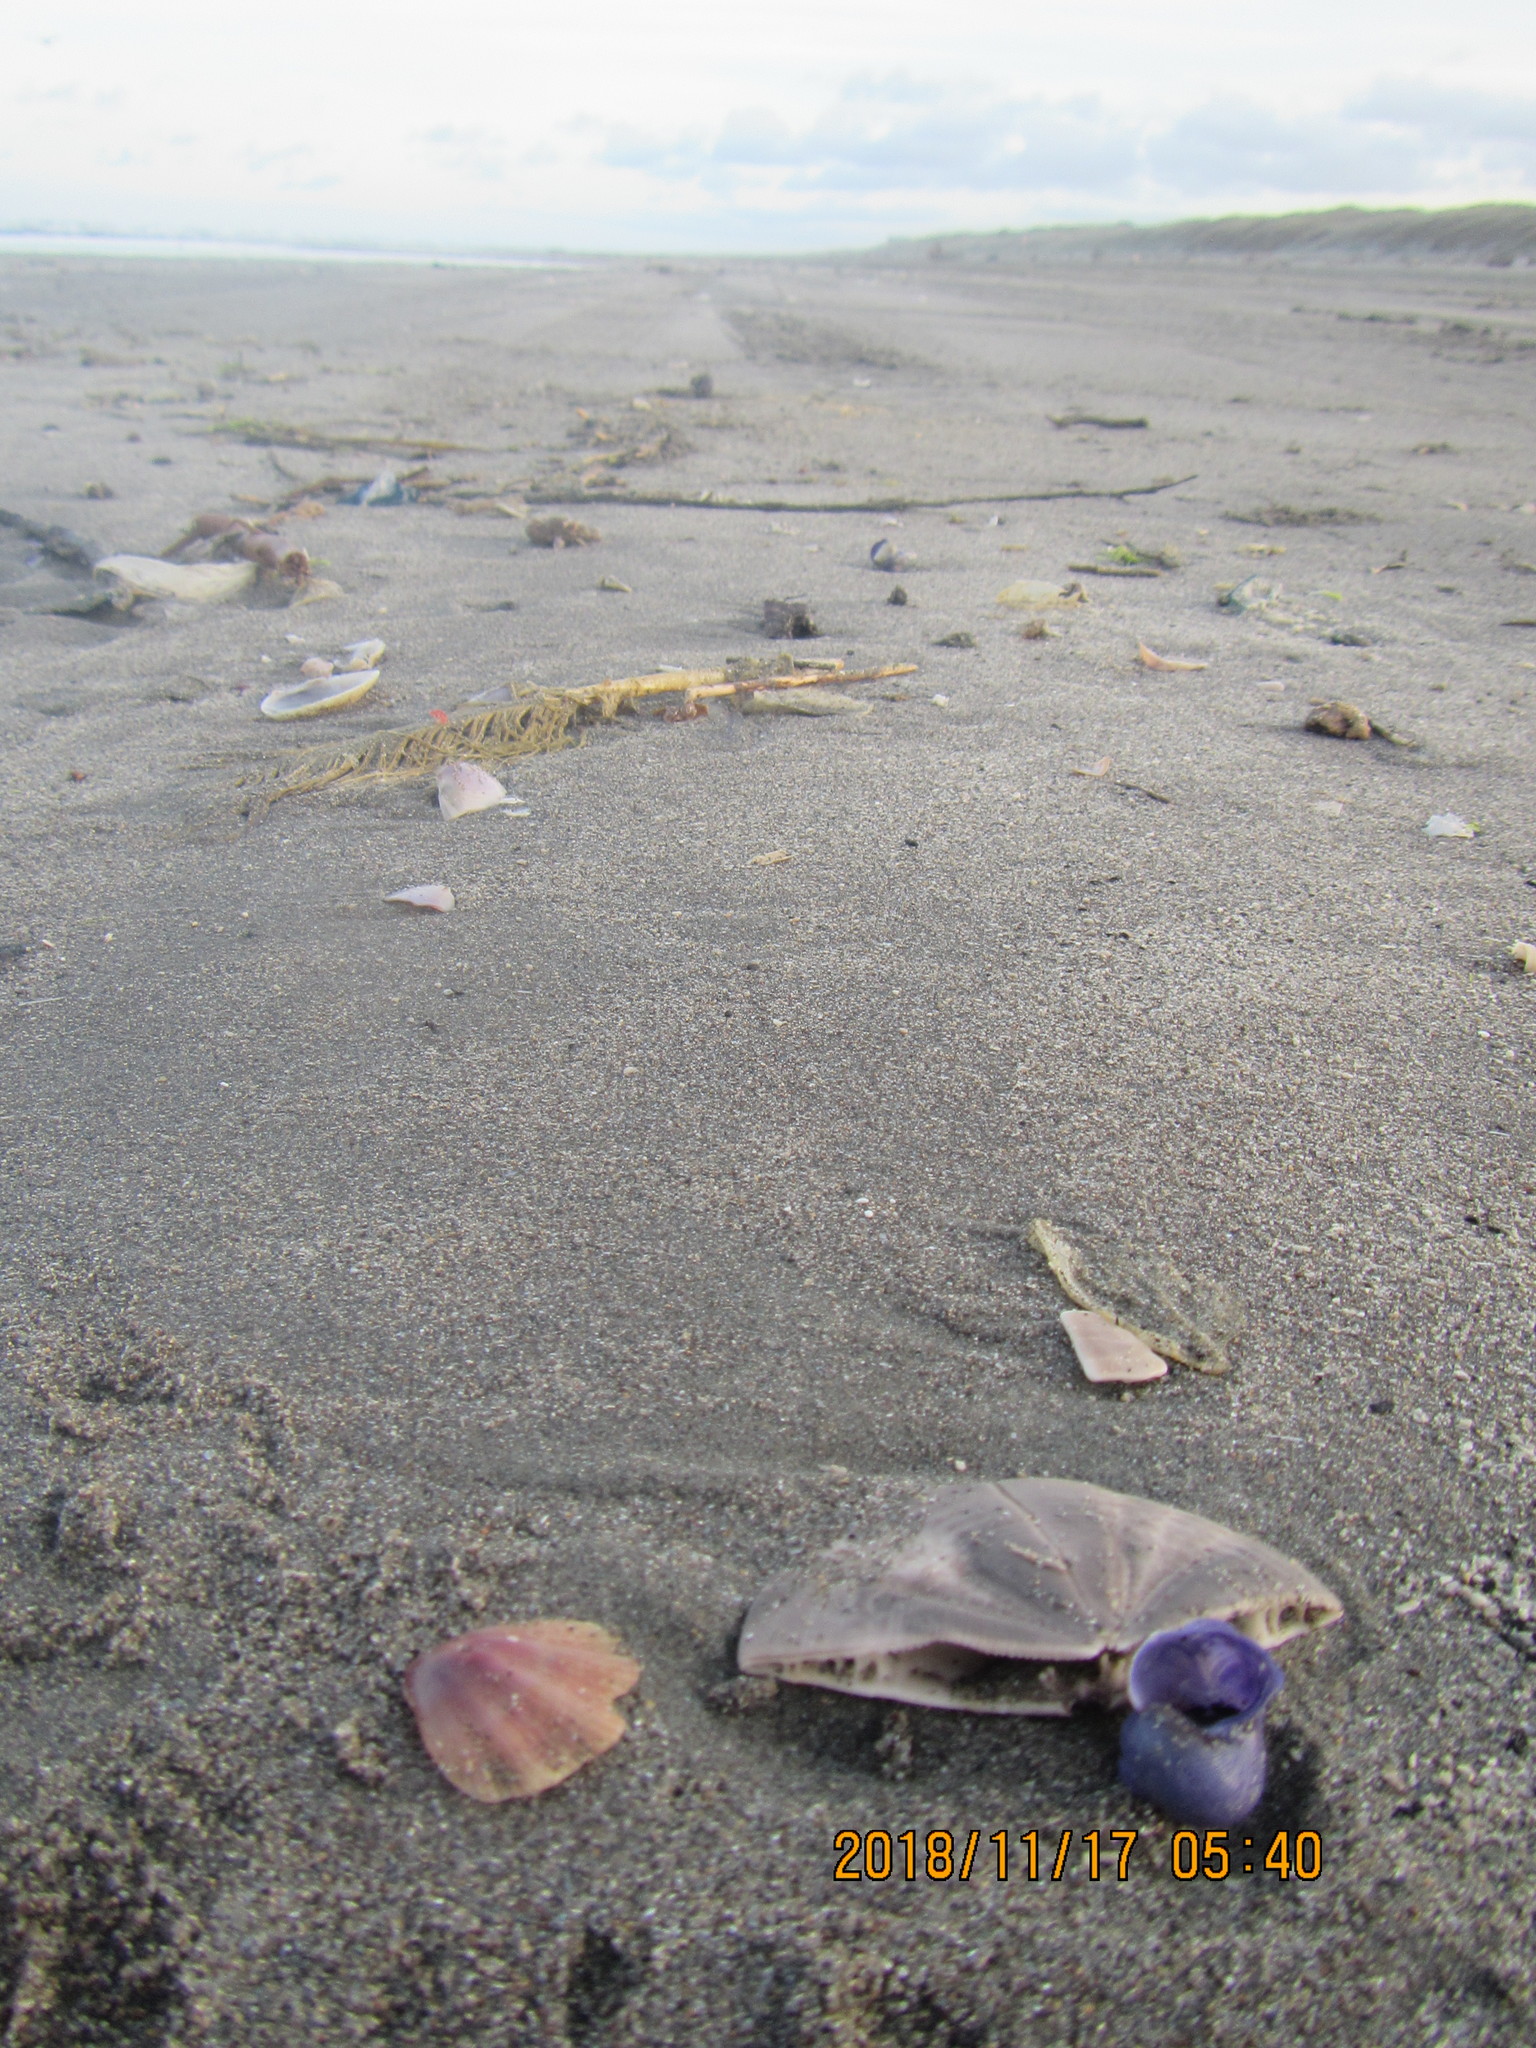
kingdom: Animalia
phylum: Mollusca
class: Bivalvia
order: Pectinida
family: Pectinidae
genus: Mesopeplum
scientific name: Mesopeplum convexum
